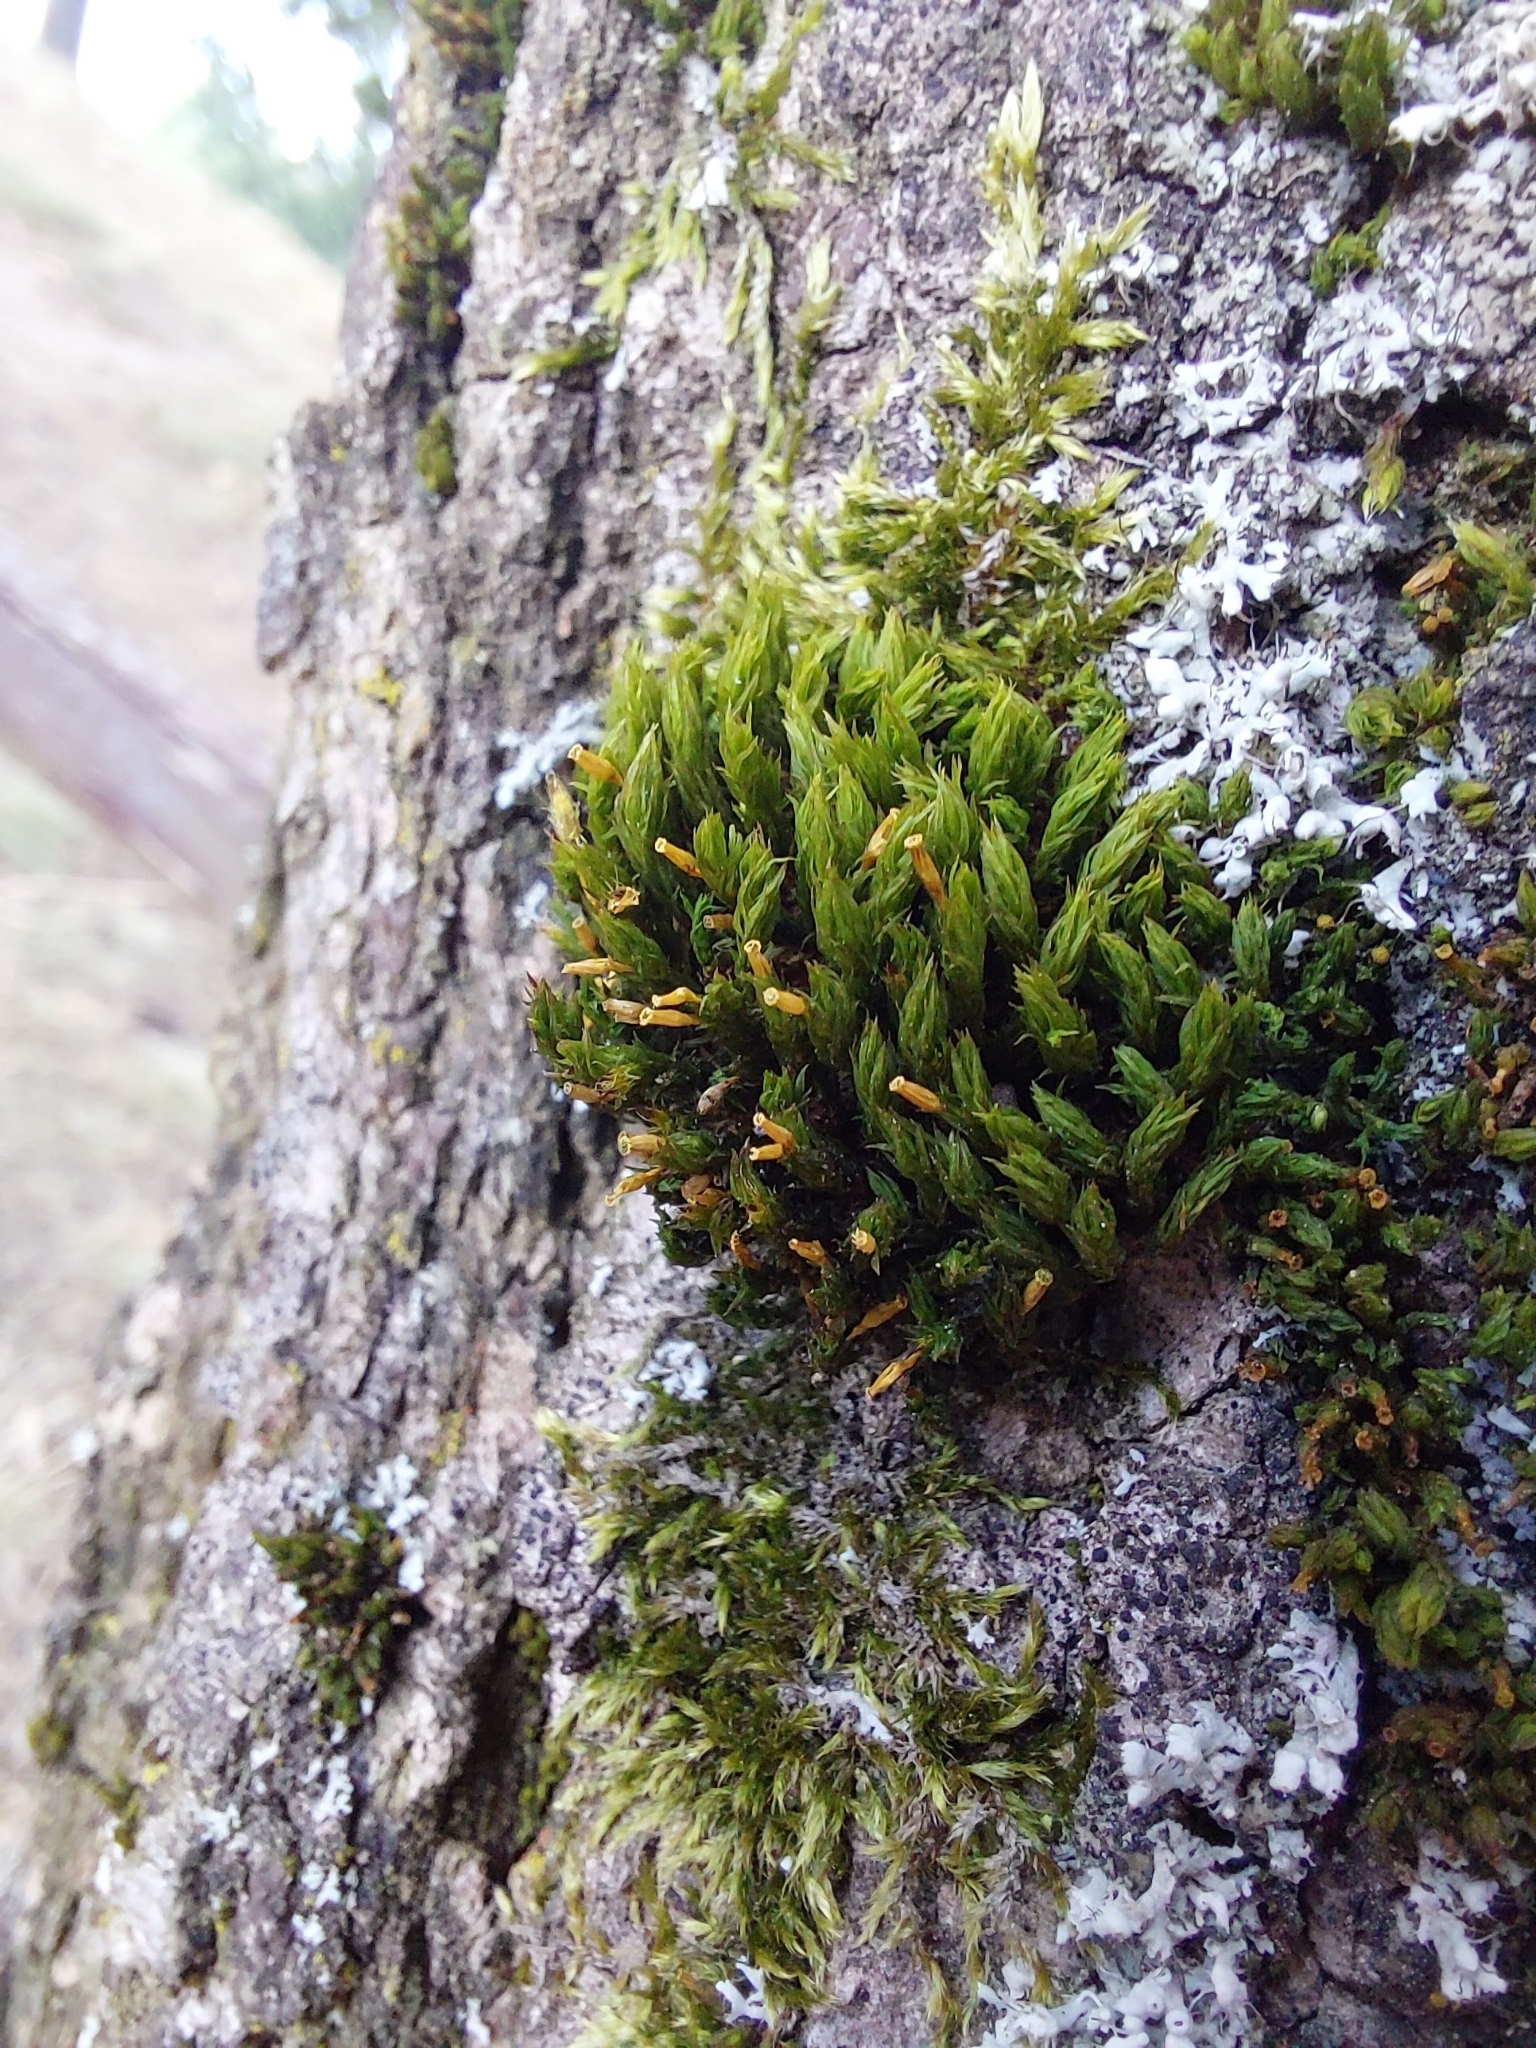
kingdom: Fungi
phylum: Ascomycota
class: Lecanoromycetes
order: Caliciales
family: Physciaceae
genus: Physcia
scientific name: Physcia adscendens
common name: Hooded rosette lichen
